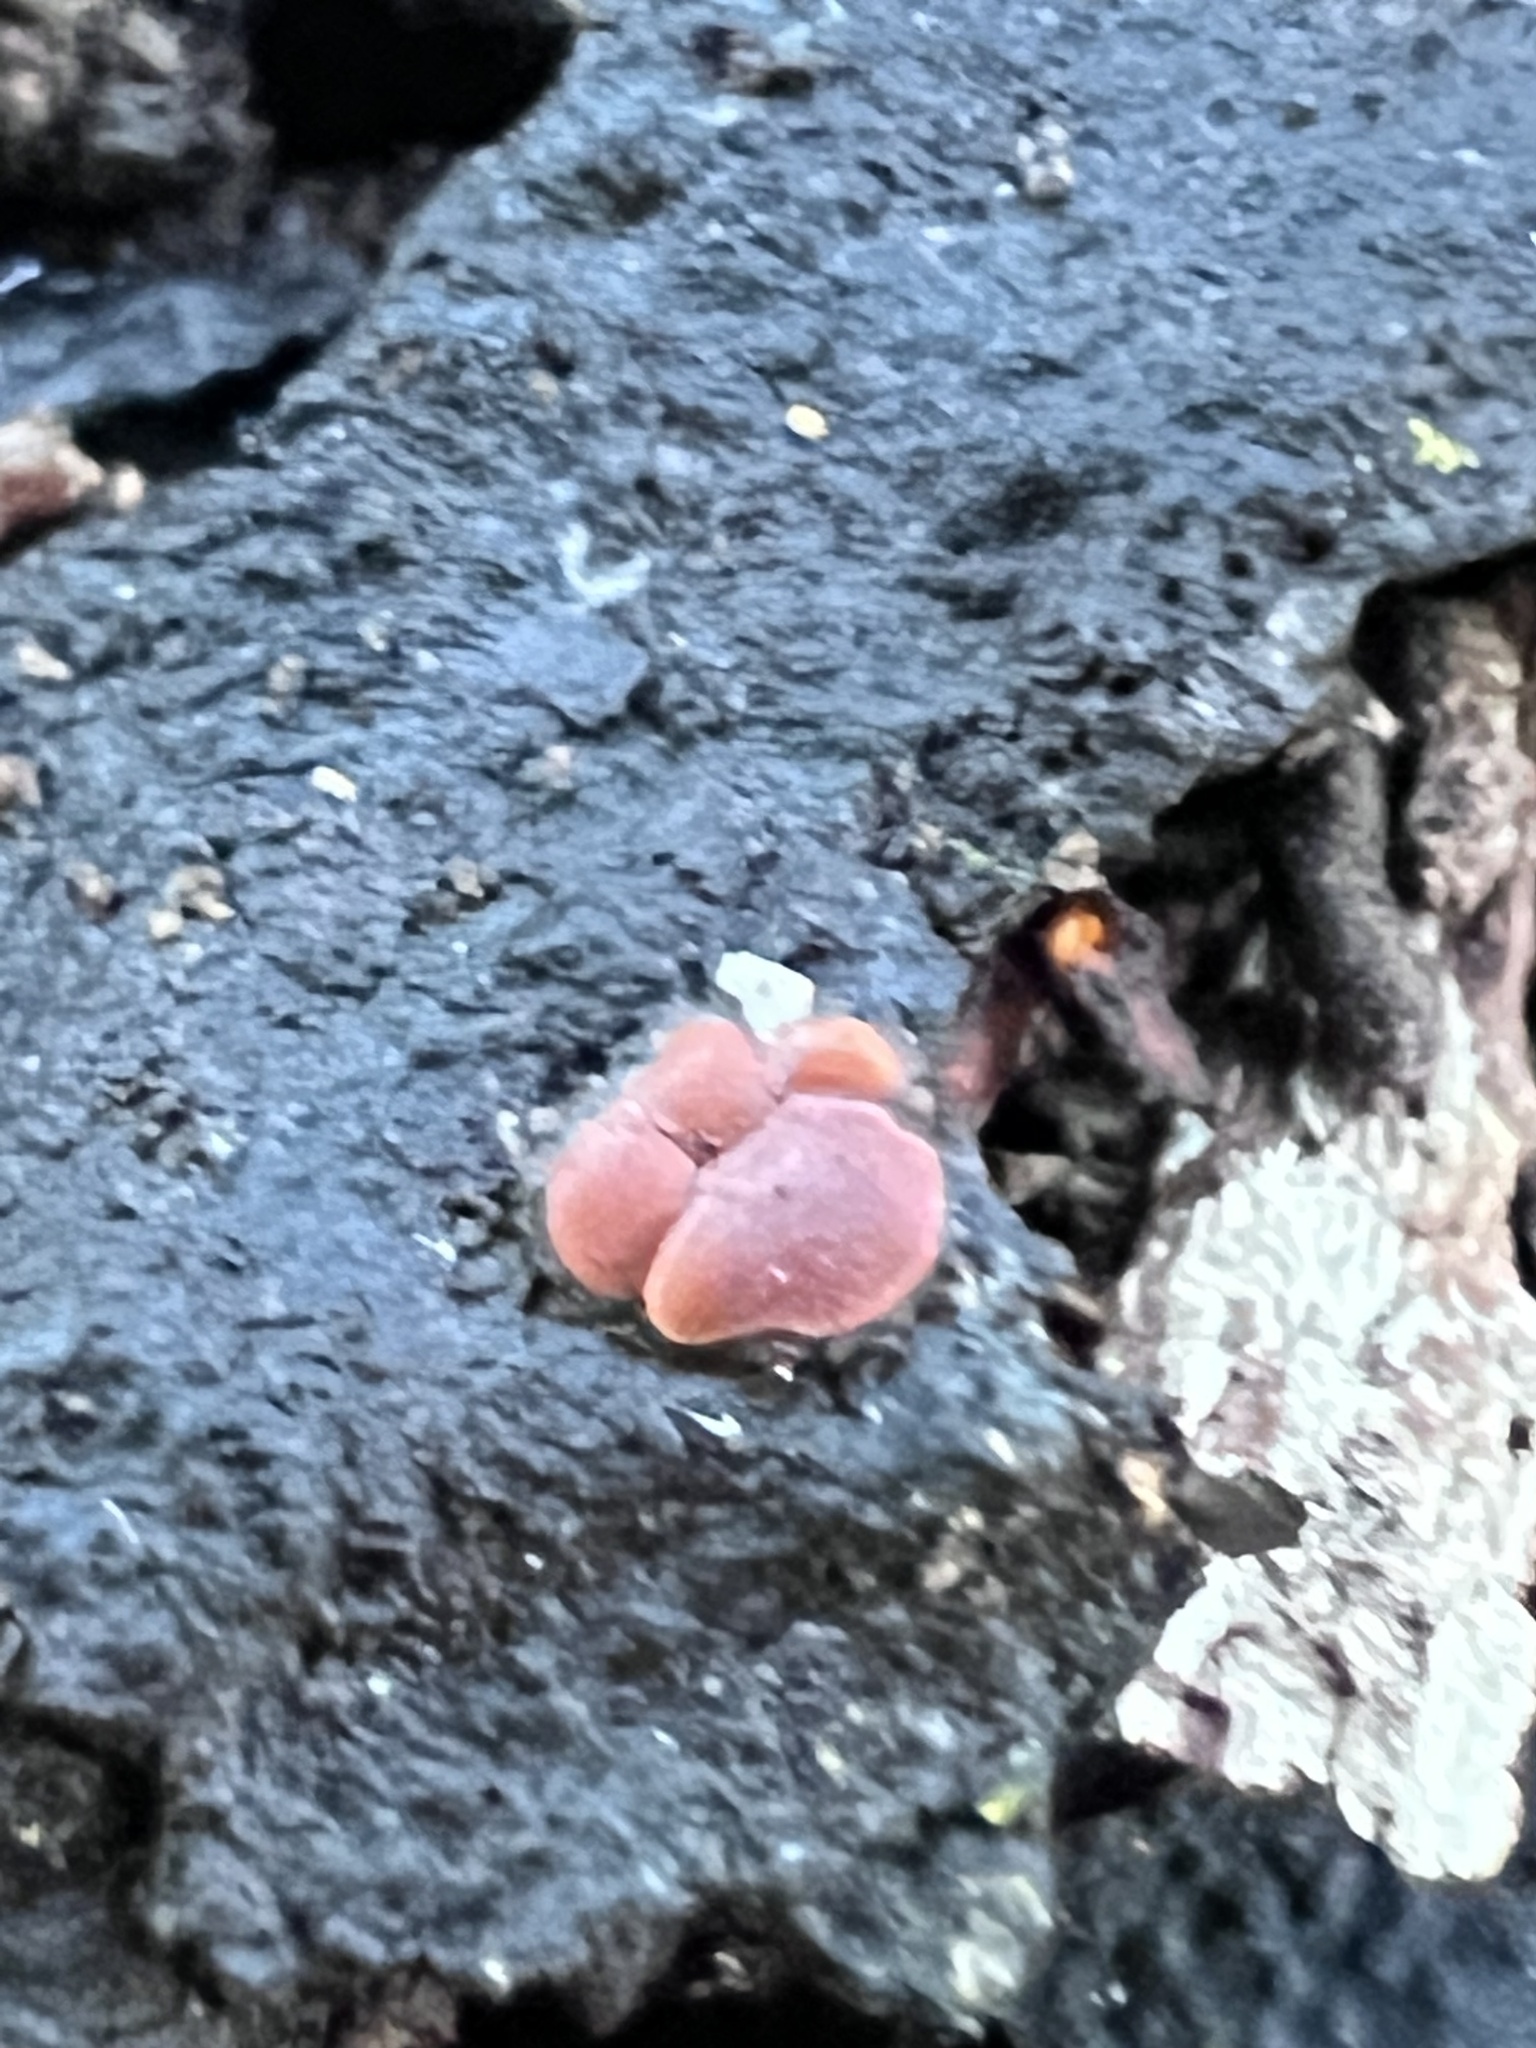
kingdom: Protozoa
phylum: Mycetozoa
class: Myxomycetes
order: Trichiales
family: Trichiaceae
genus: Perichaena
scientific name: Perichaena depressa
